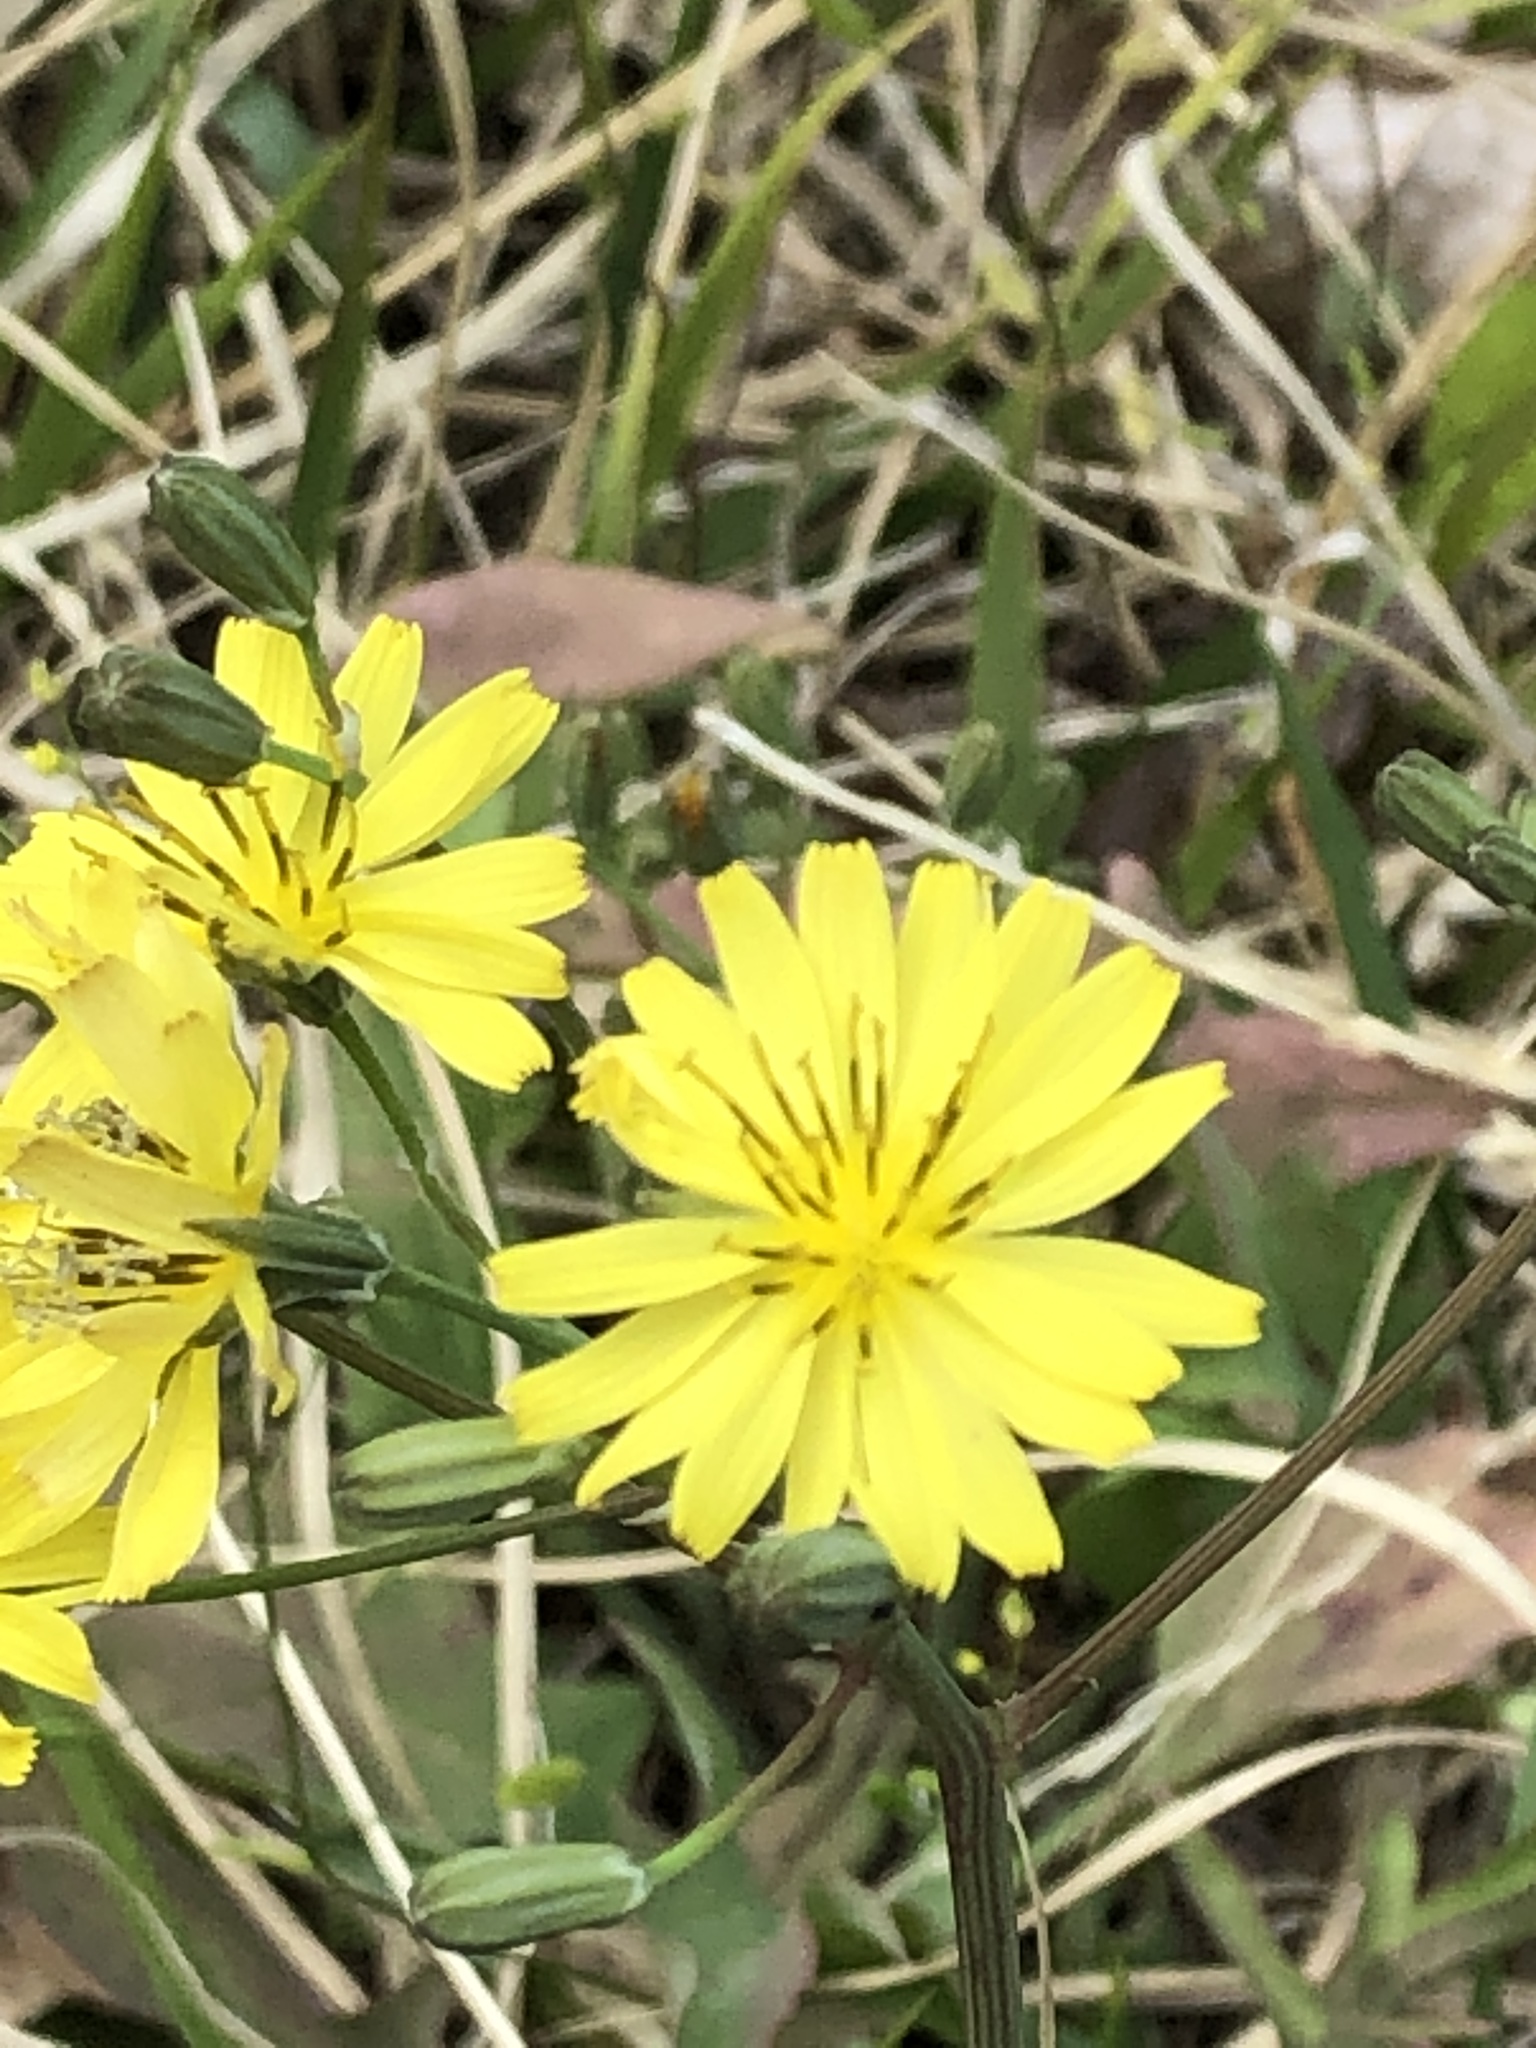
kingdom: Plantae
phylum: Tracheophyta
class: Magnoliopsida
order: Asterales
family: Asteraceae
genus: Ixeris
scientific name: Ixeris chinensis
